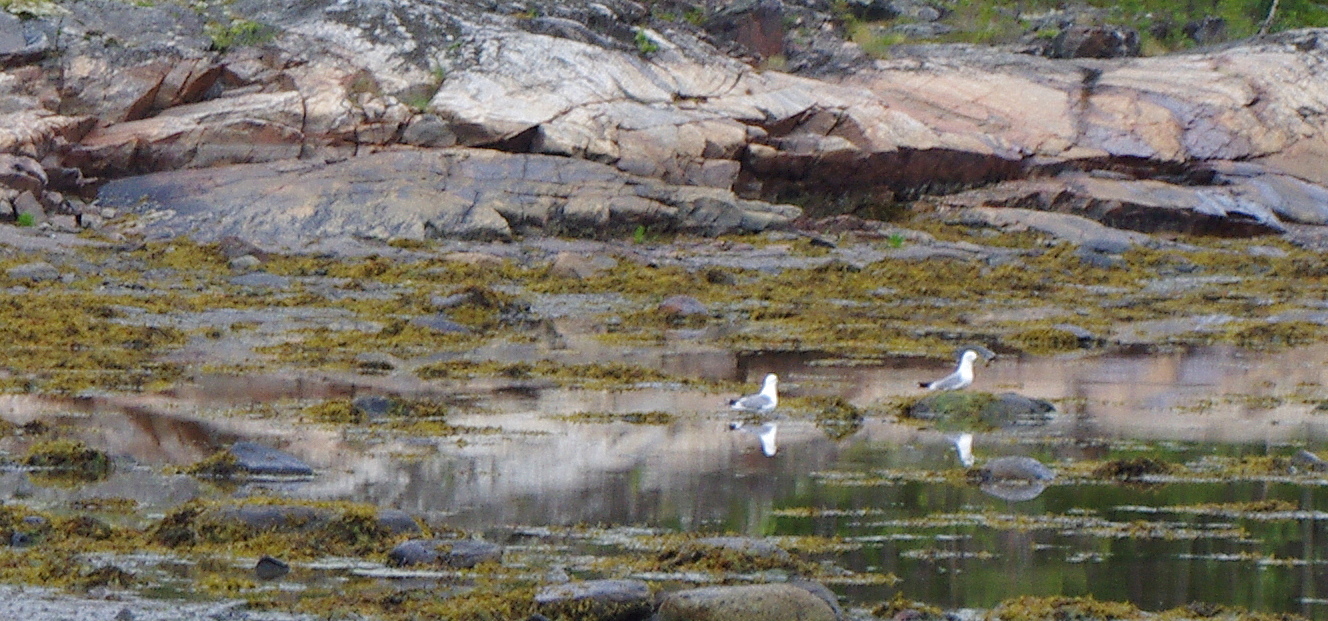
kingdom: Animalia
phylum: Chordata
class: Aves
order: Charadriiformes
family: Laridae
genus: Larus
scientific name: Larus argentatus
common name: Herring gull
